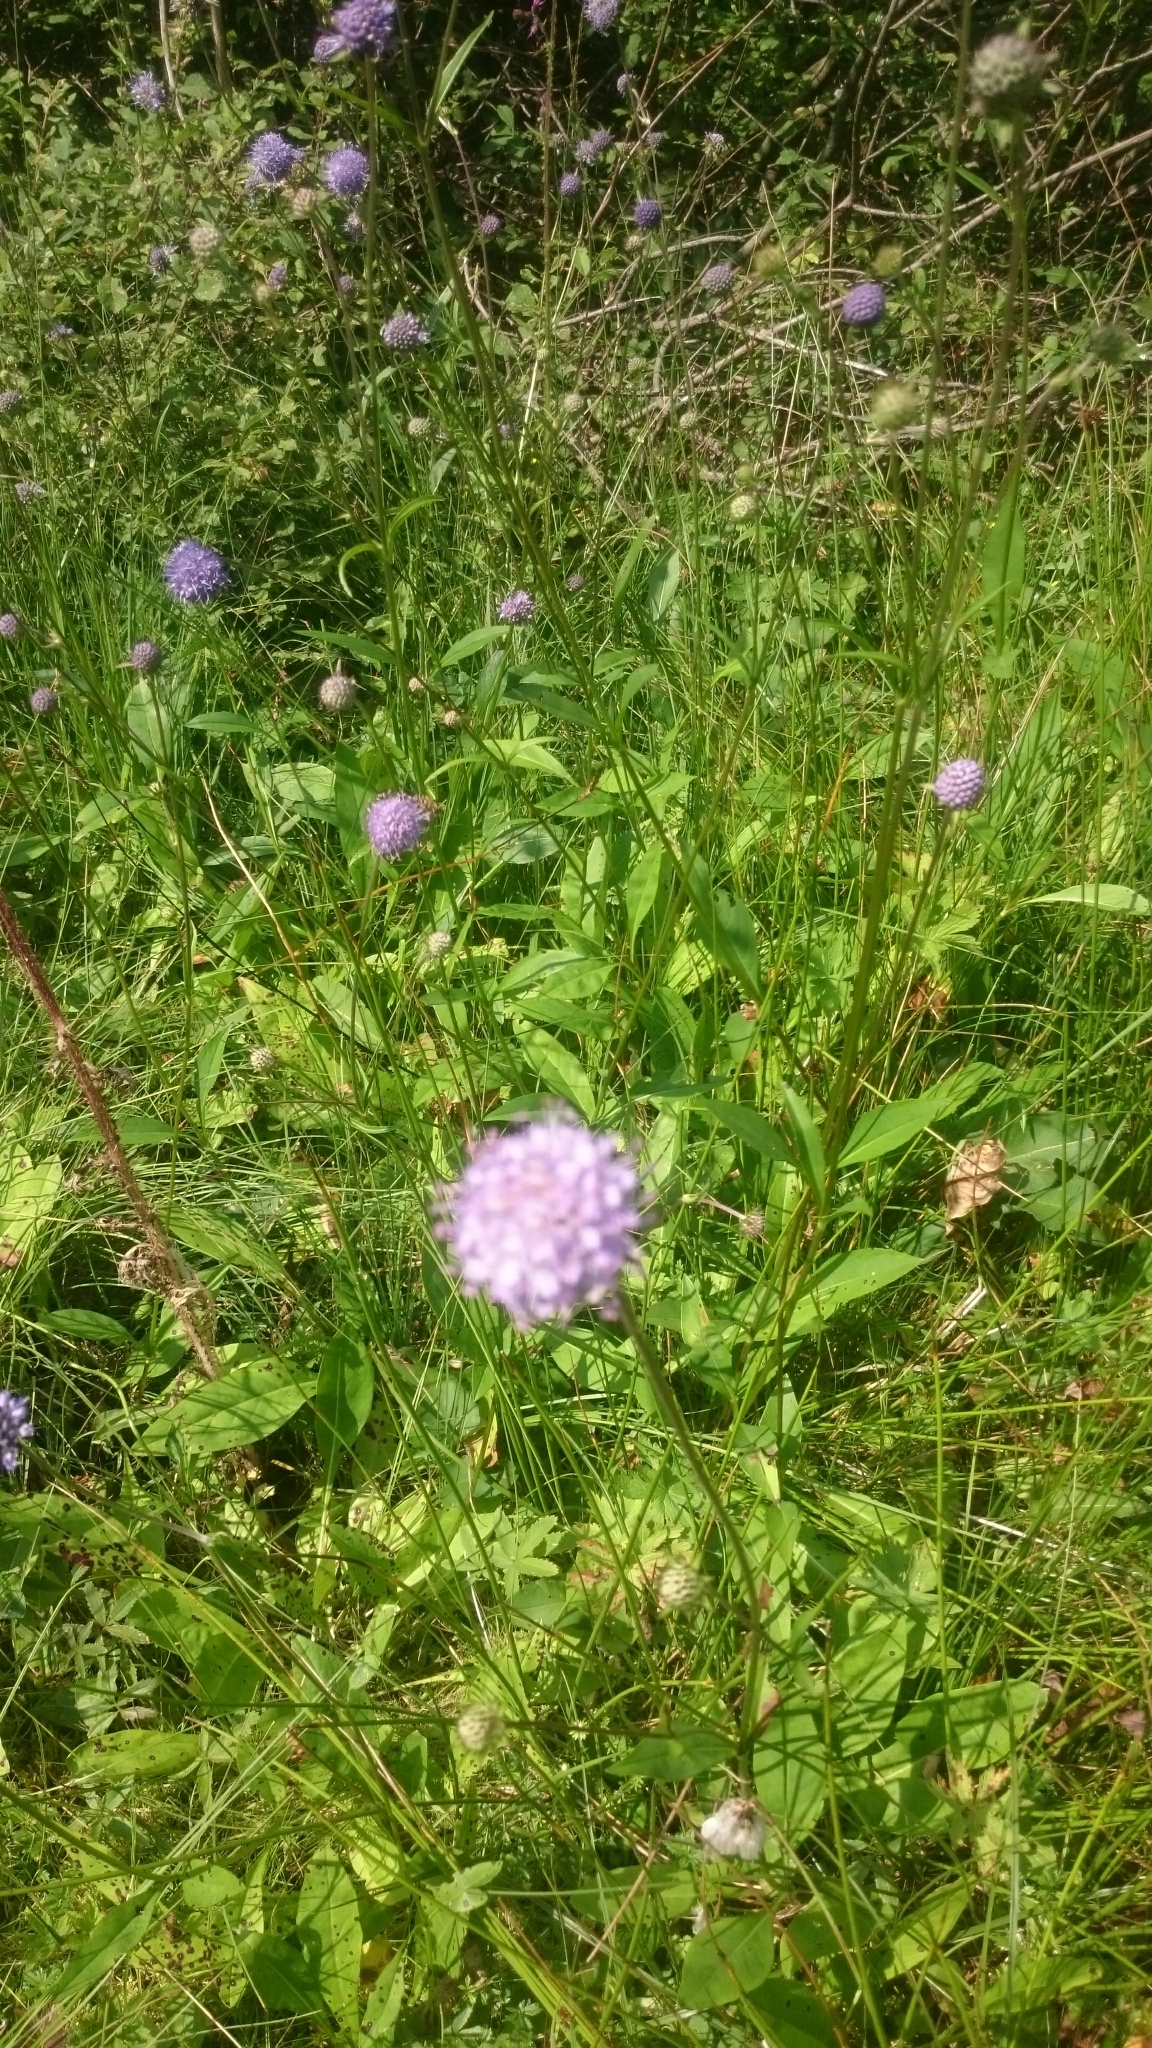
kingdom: Plantae
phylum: Tracheophyta
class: Magnoliopsida
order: Dipsacales
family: Caprifoliaceae
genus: Succisa
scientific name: Succisa pratensis
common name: Devil's-bit
